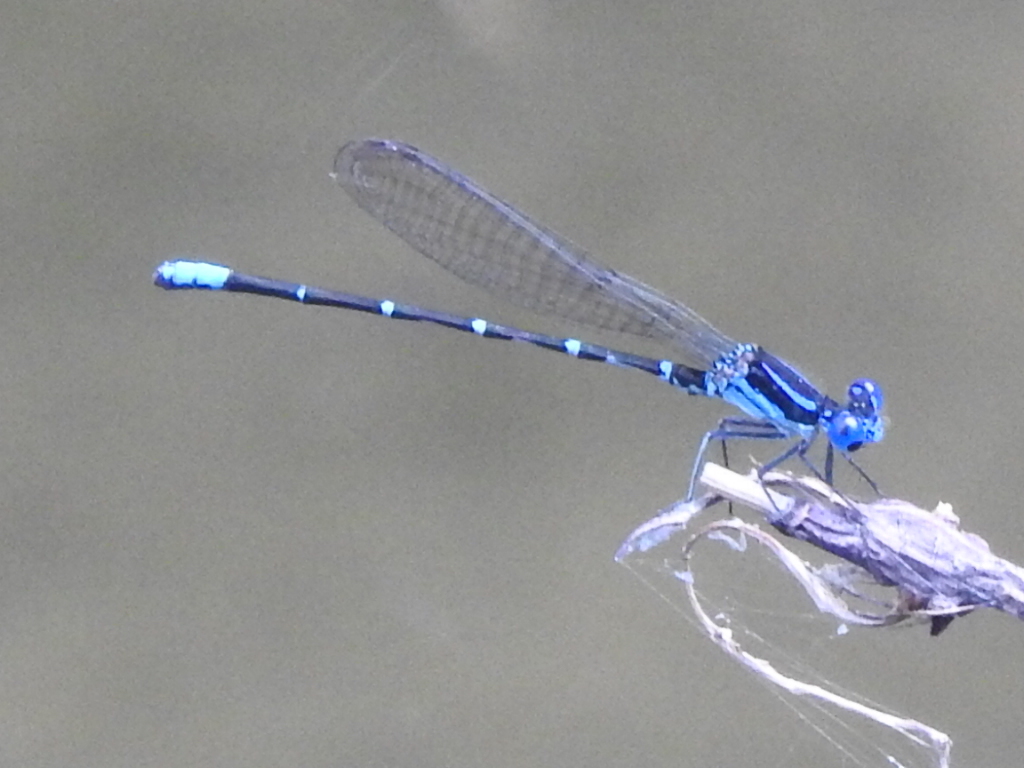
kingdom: Animalia
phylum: Arthropoda
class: Insecta
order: Odonata
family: Coenagrionidae
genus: Argia
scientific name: Argia sedula
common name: Blue-ringed dancer
